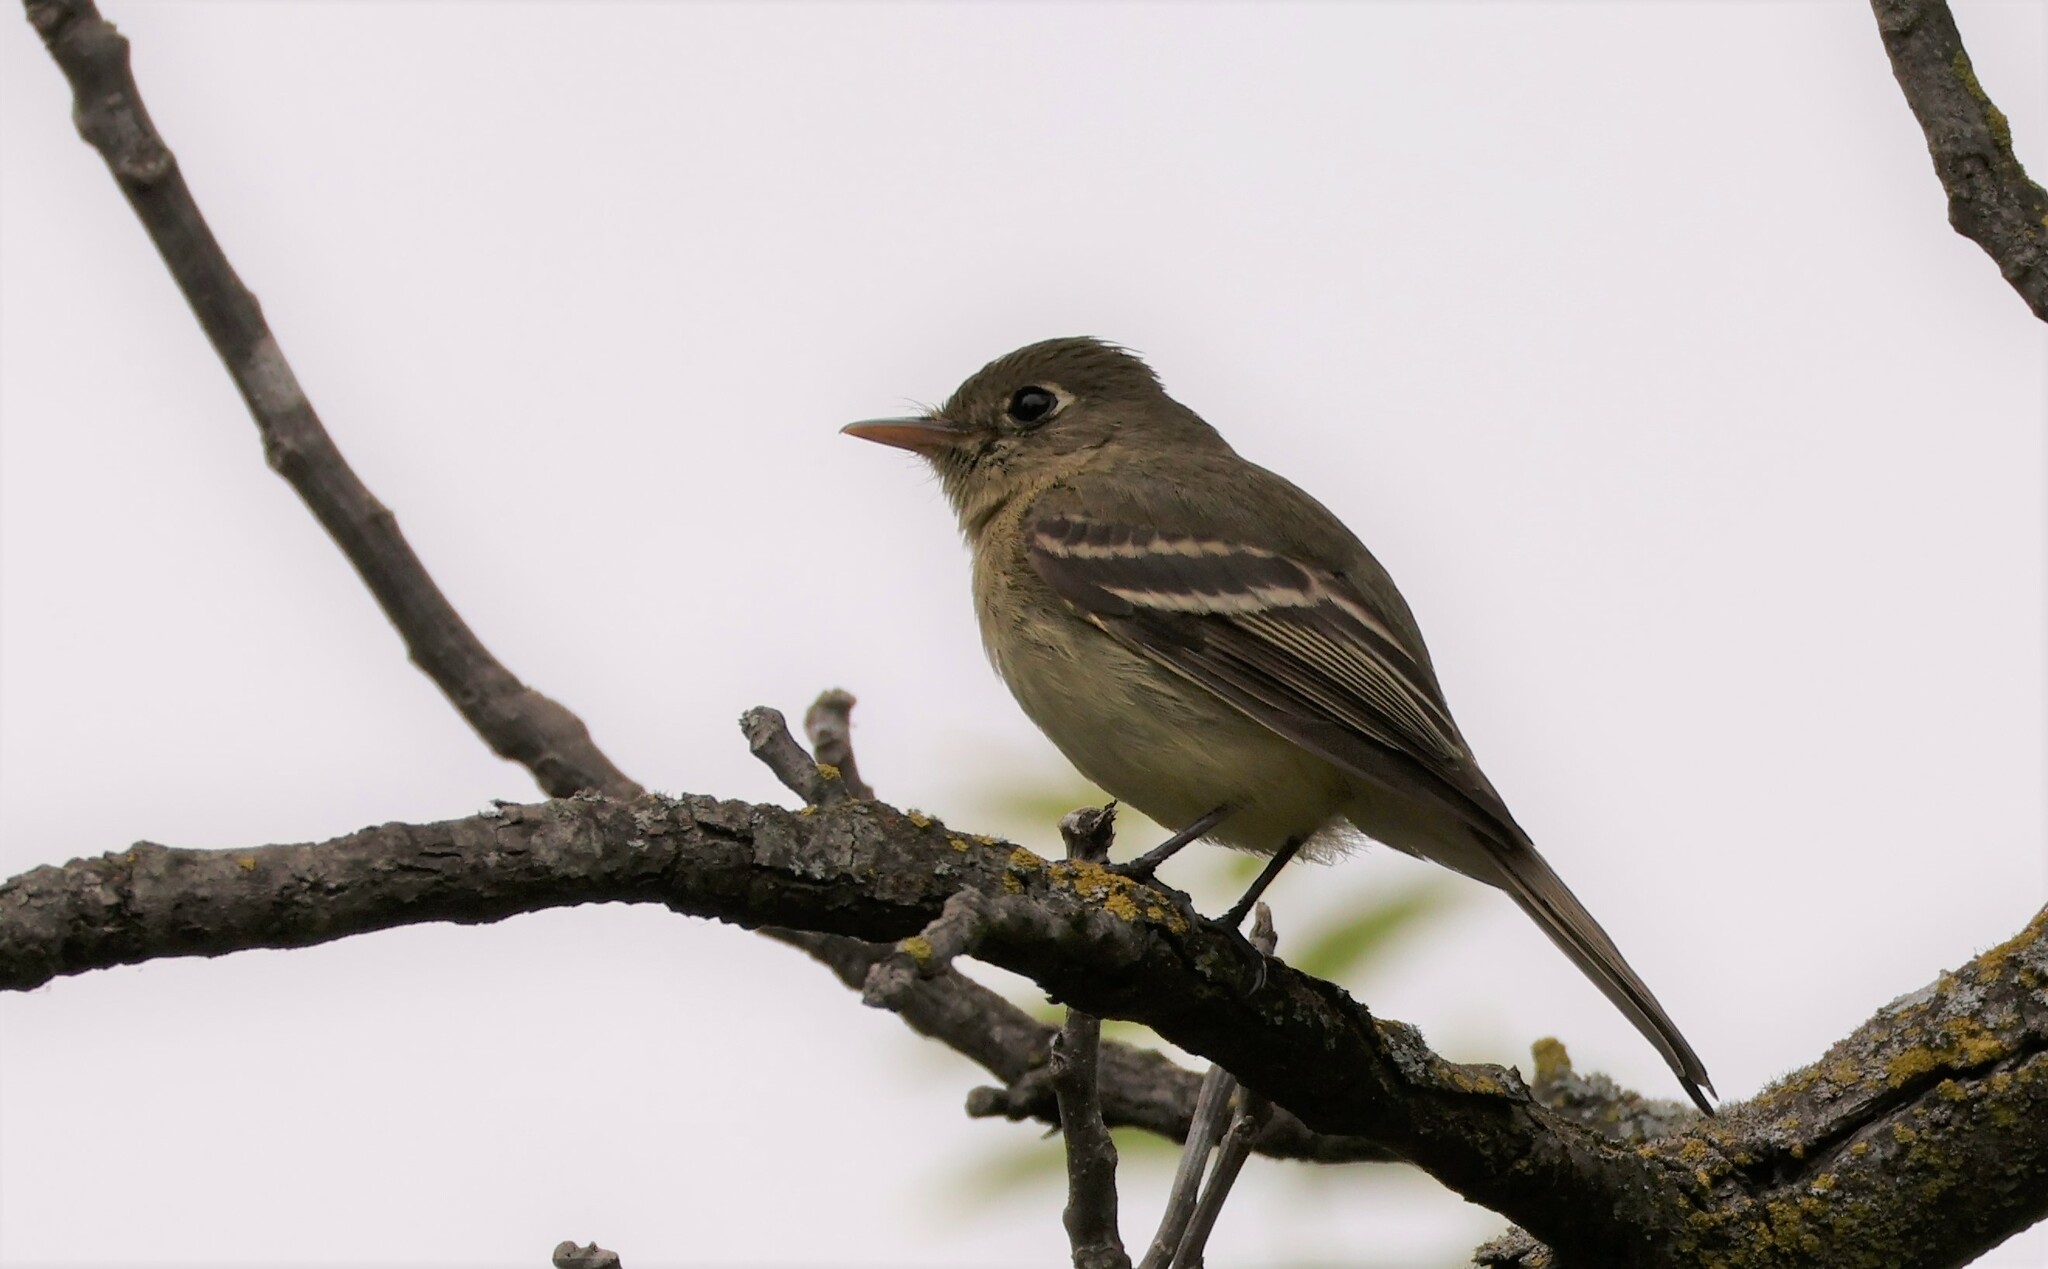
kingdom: Animalia
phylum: Chordata
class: Aves
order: Passeriformes
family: Tyrannidae
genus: Empidonax
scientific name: Empidonax difficilis
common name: Pacific-slope flycatcher
